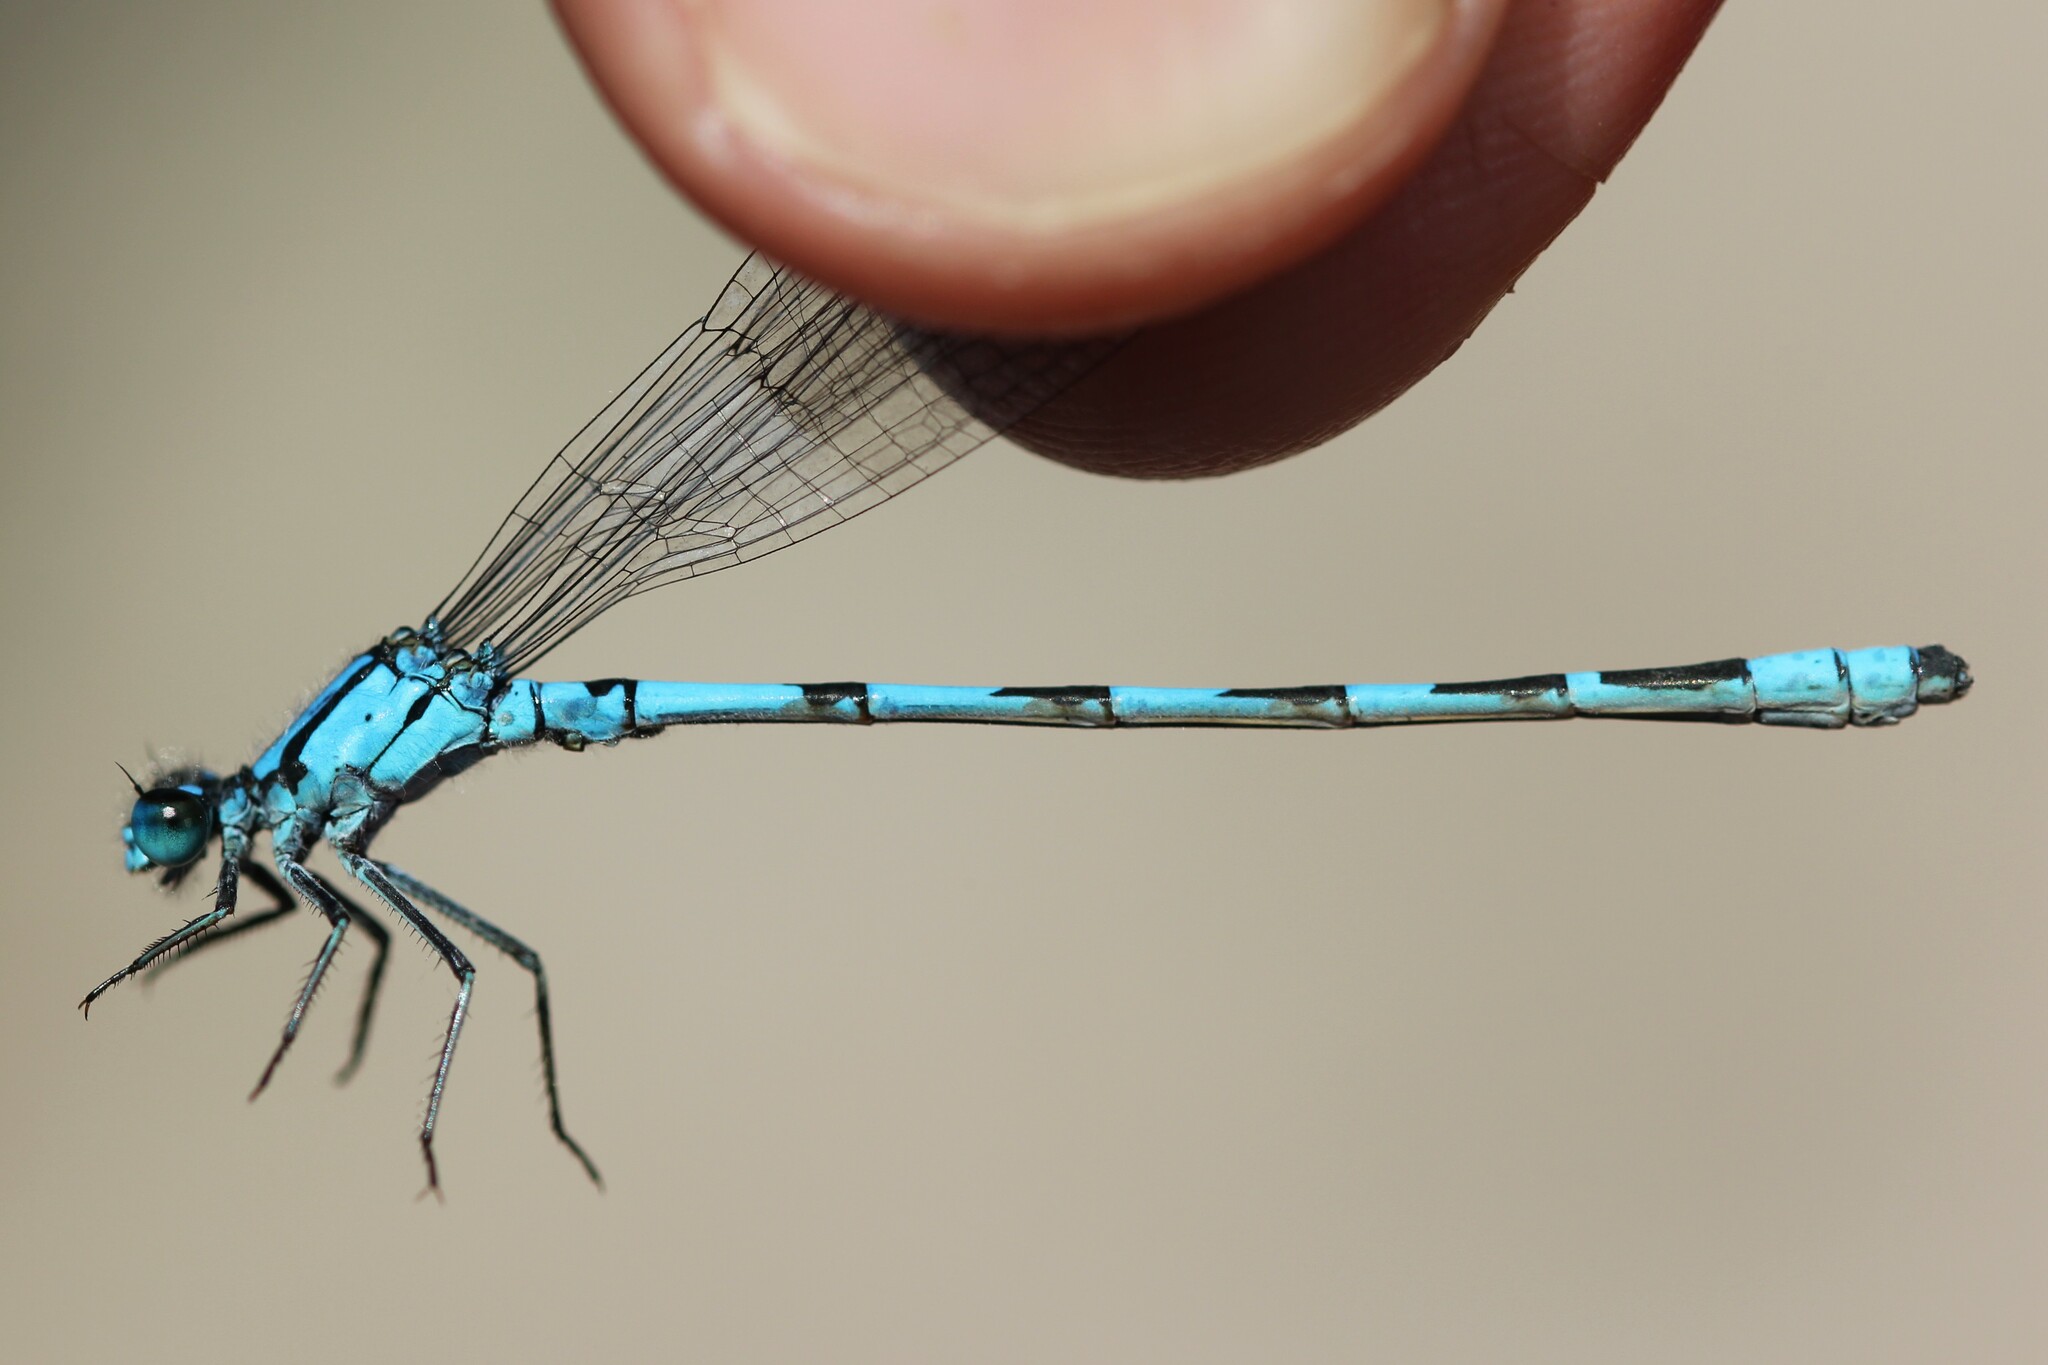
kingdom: Animalia
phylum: Arthropoda
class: Insecta
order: Odonata
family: Coenagrionidae
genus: Enallagma
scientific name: Enallagma clausum
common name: Alkali bluet
